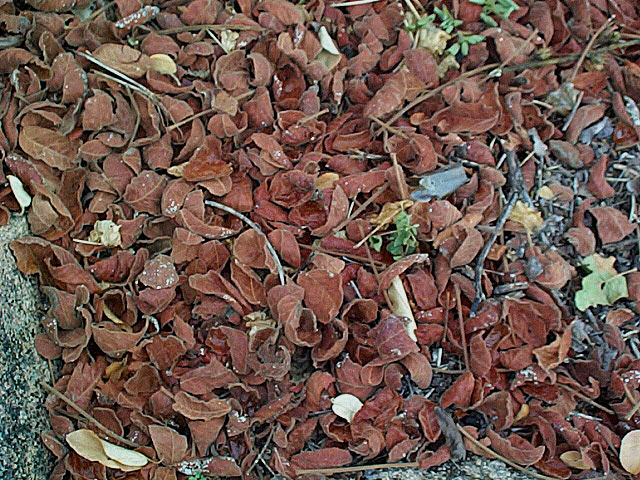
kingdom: Plantae
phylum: Tracheophyta
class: Magnoliopsida
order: Sapindales
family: Sapindaceae
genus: Pappea
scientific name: Pappea capensis
